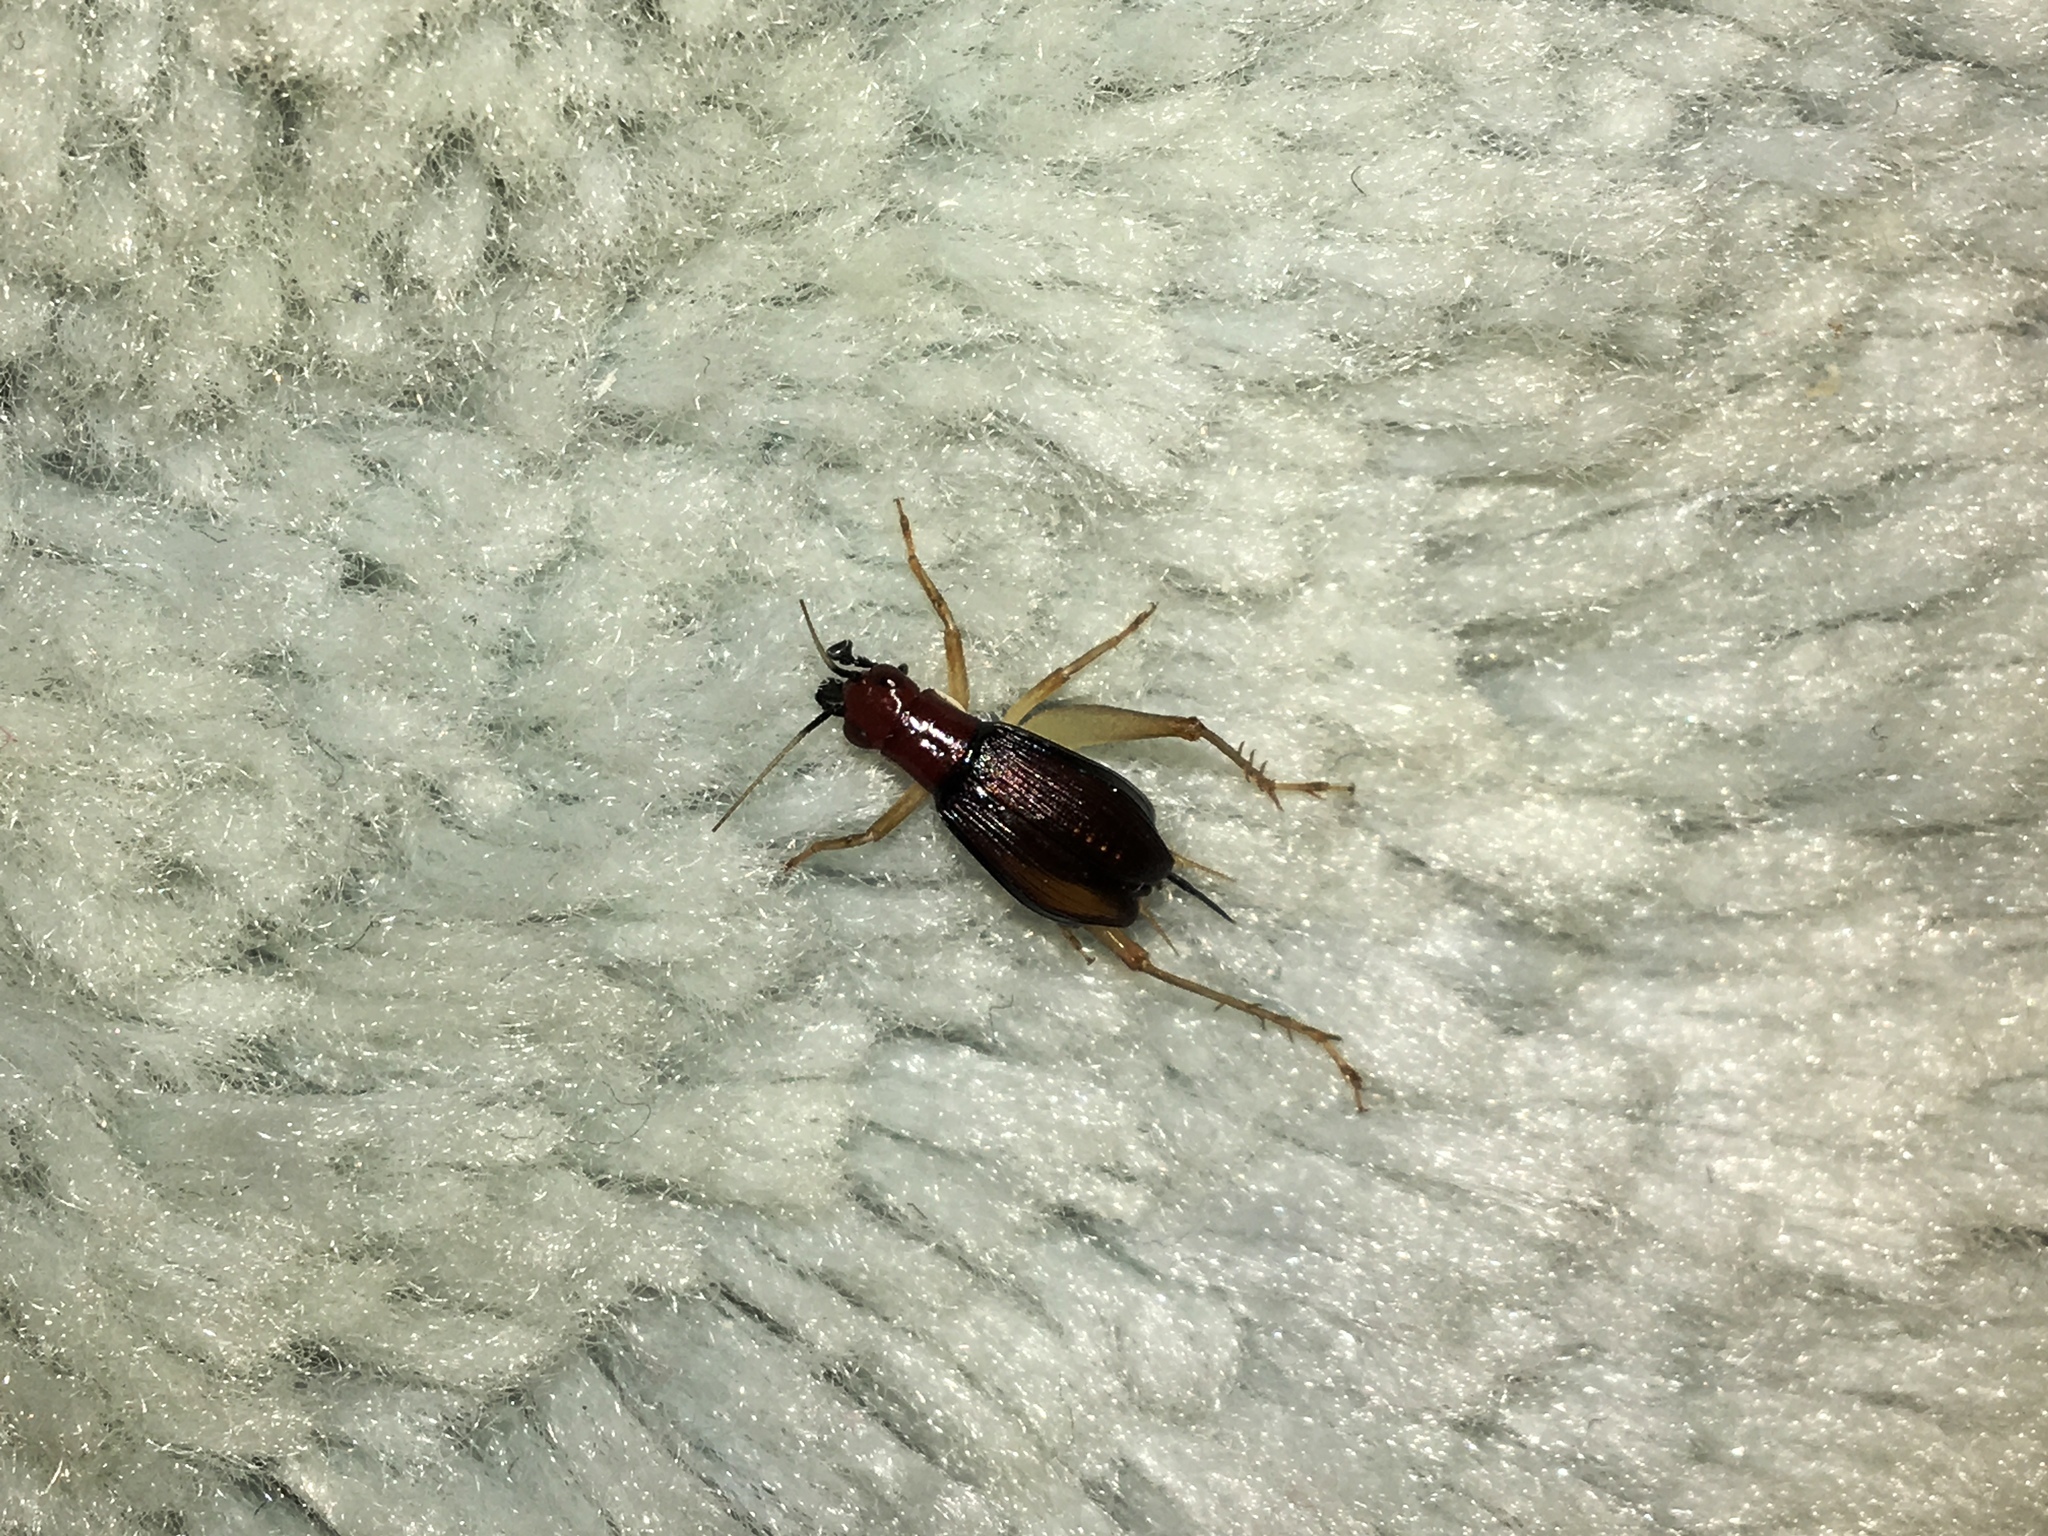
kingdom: Animalia
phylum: Arthropoda
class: Insecta
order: Orthoptera
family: Trigonidiidae
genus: Phyllopalpus
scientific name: Phyllopalpus pulchellus
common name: Handsome trig
